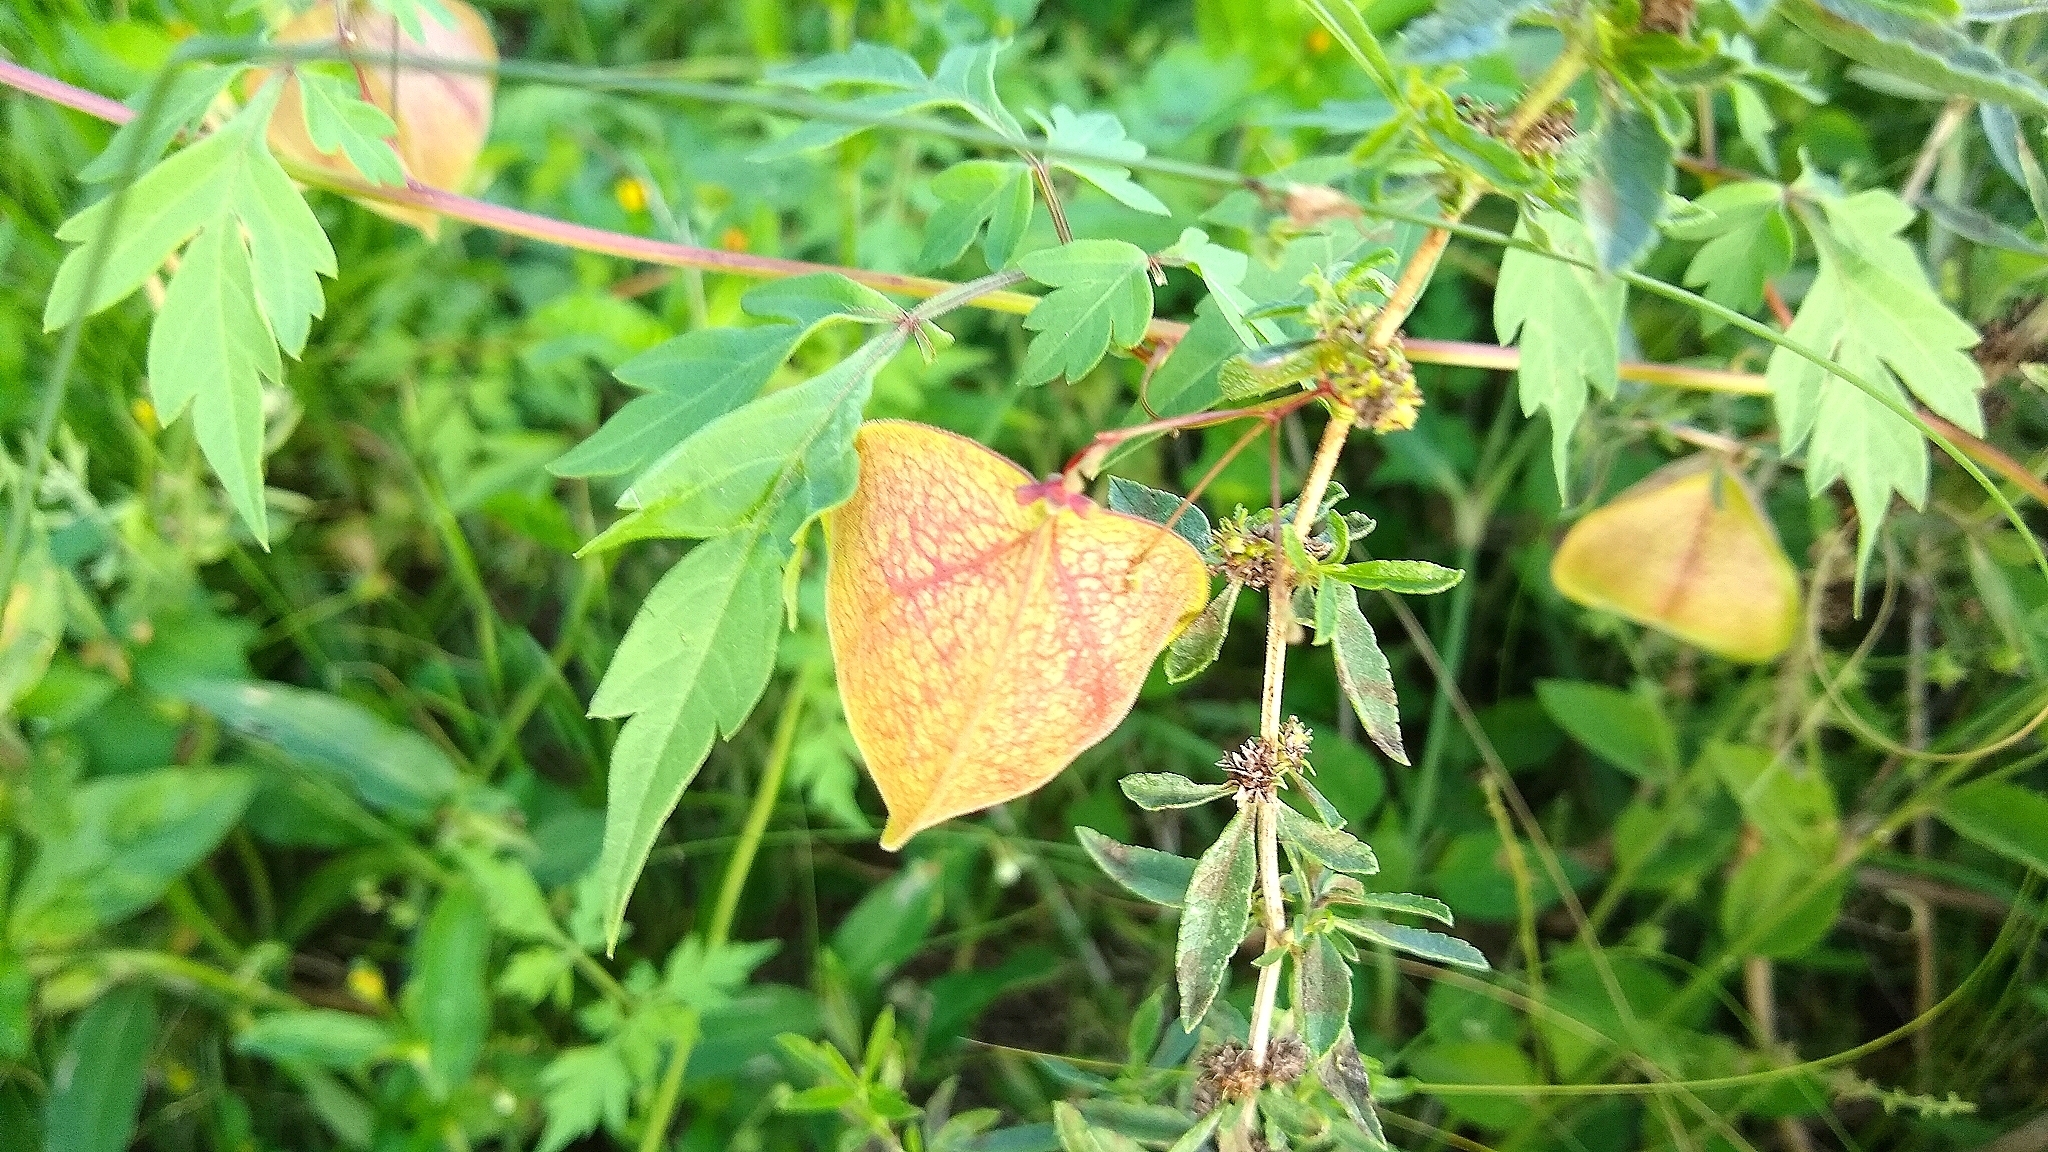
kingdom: Plantae
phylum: Tracheophyta
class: Magnoliopsida
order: Sapindales
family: Sapindaceae
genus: Cardiospermum
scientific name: Cardiospermum halicacabum
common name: Balloon vine
